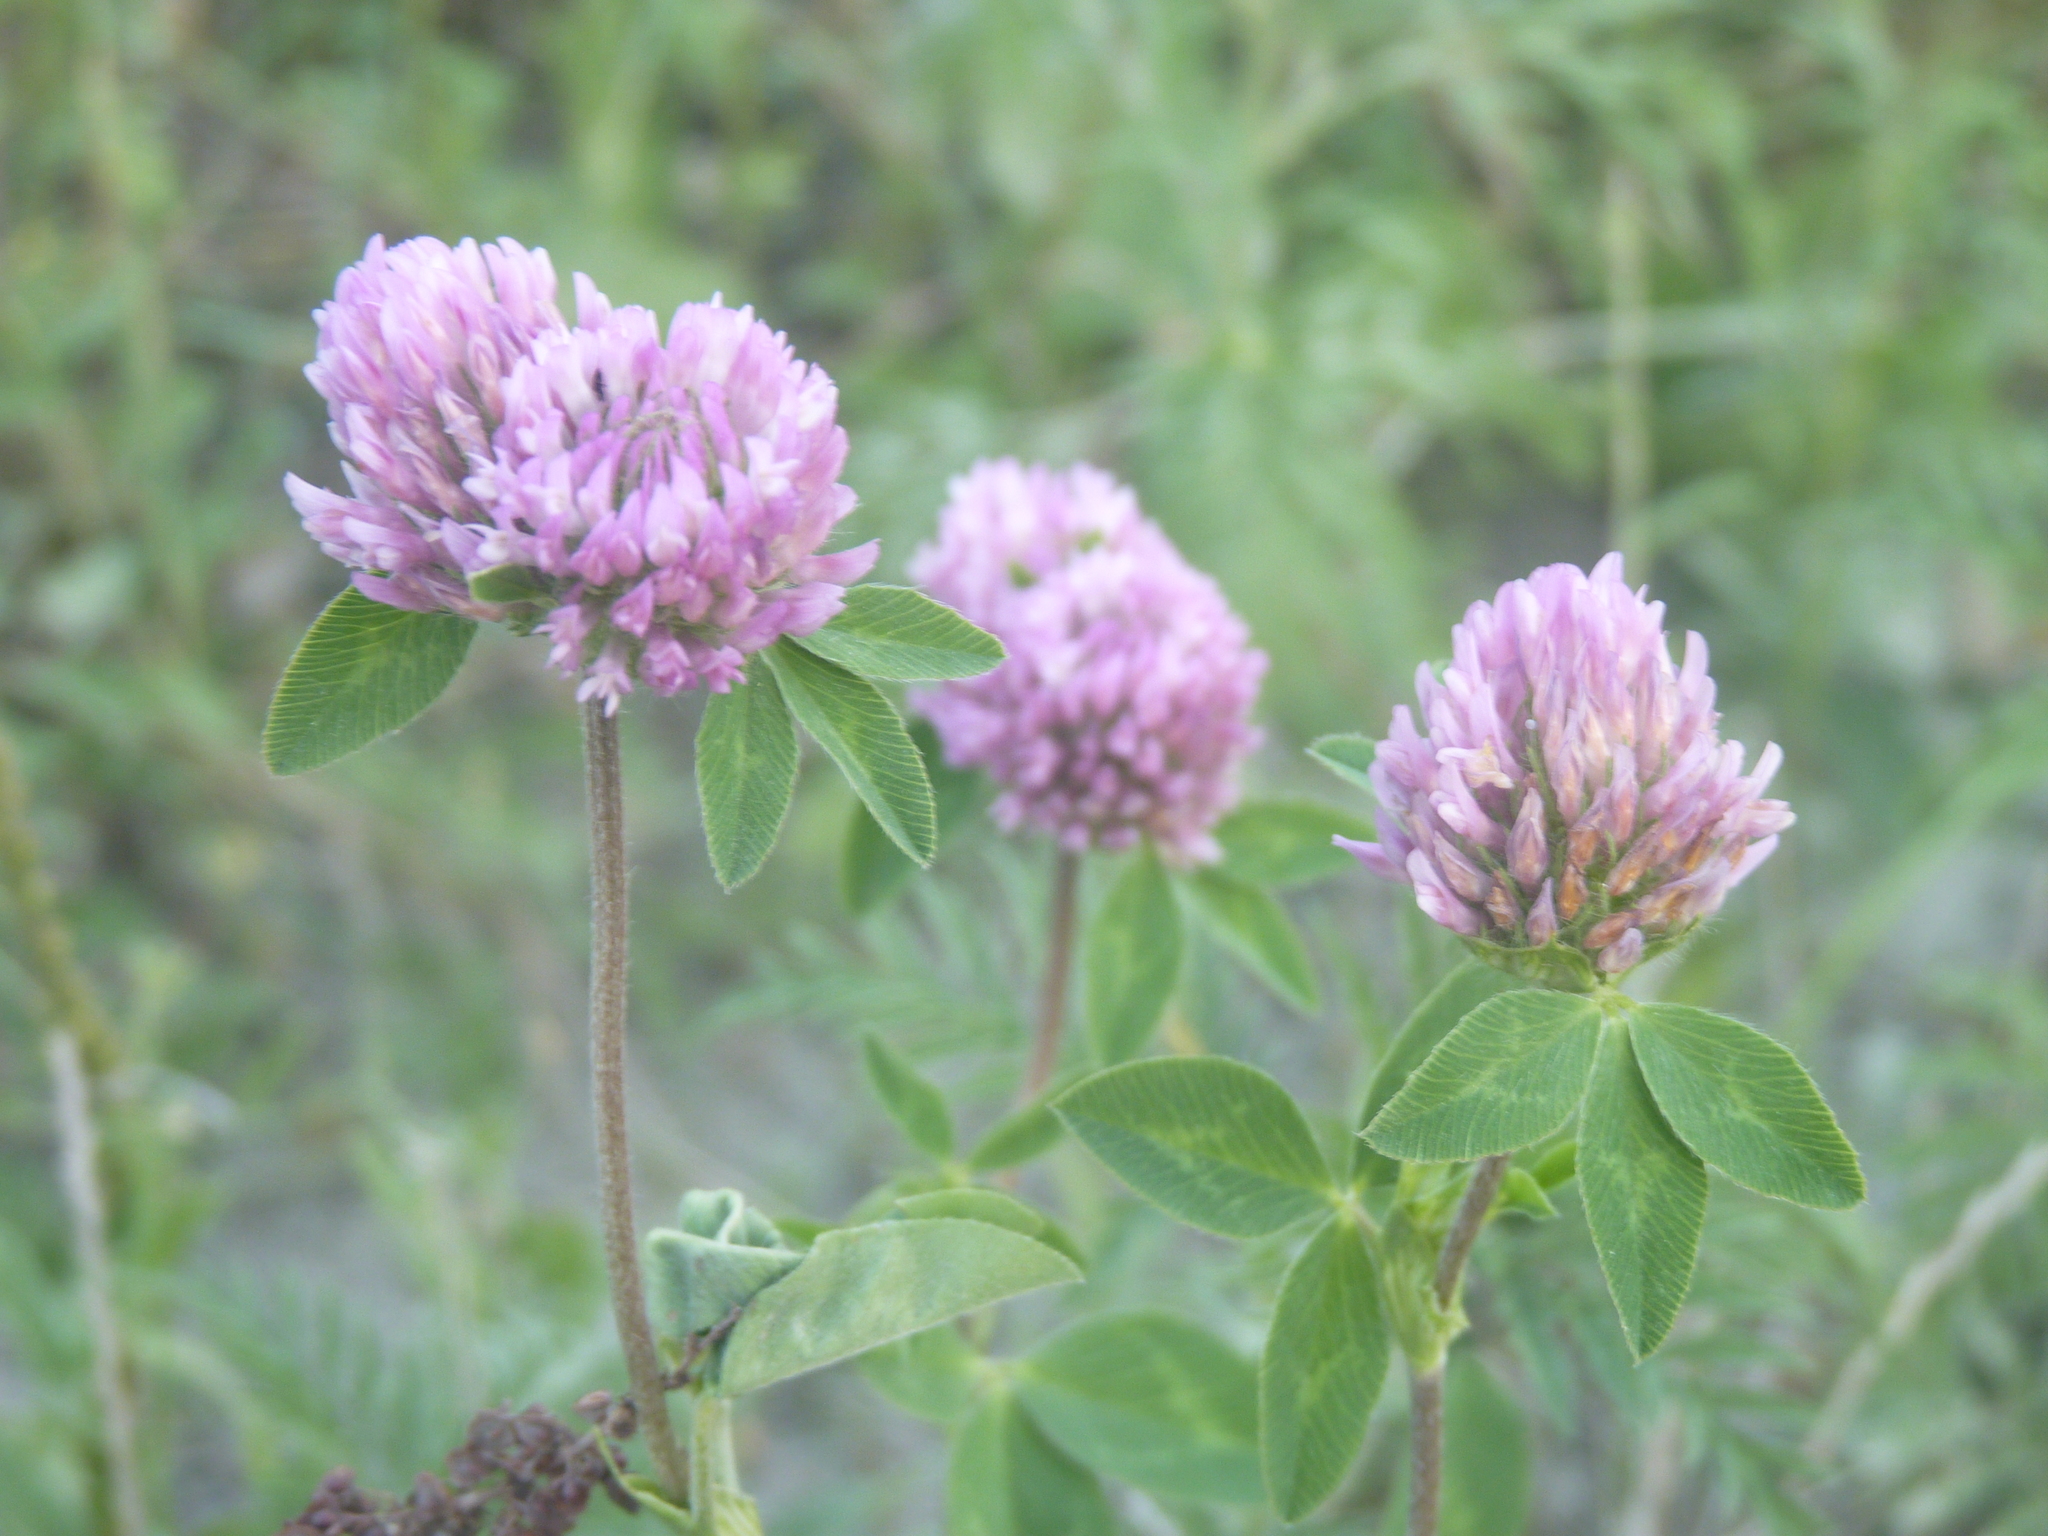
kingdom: Plantae
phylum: Tracheophyta
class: Magnoliopsida
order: Fabales
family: Fabaceae
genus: Trifolium
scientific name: Trifolium pratense
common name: Red clover
